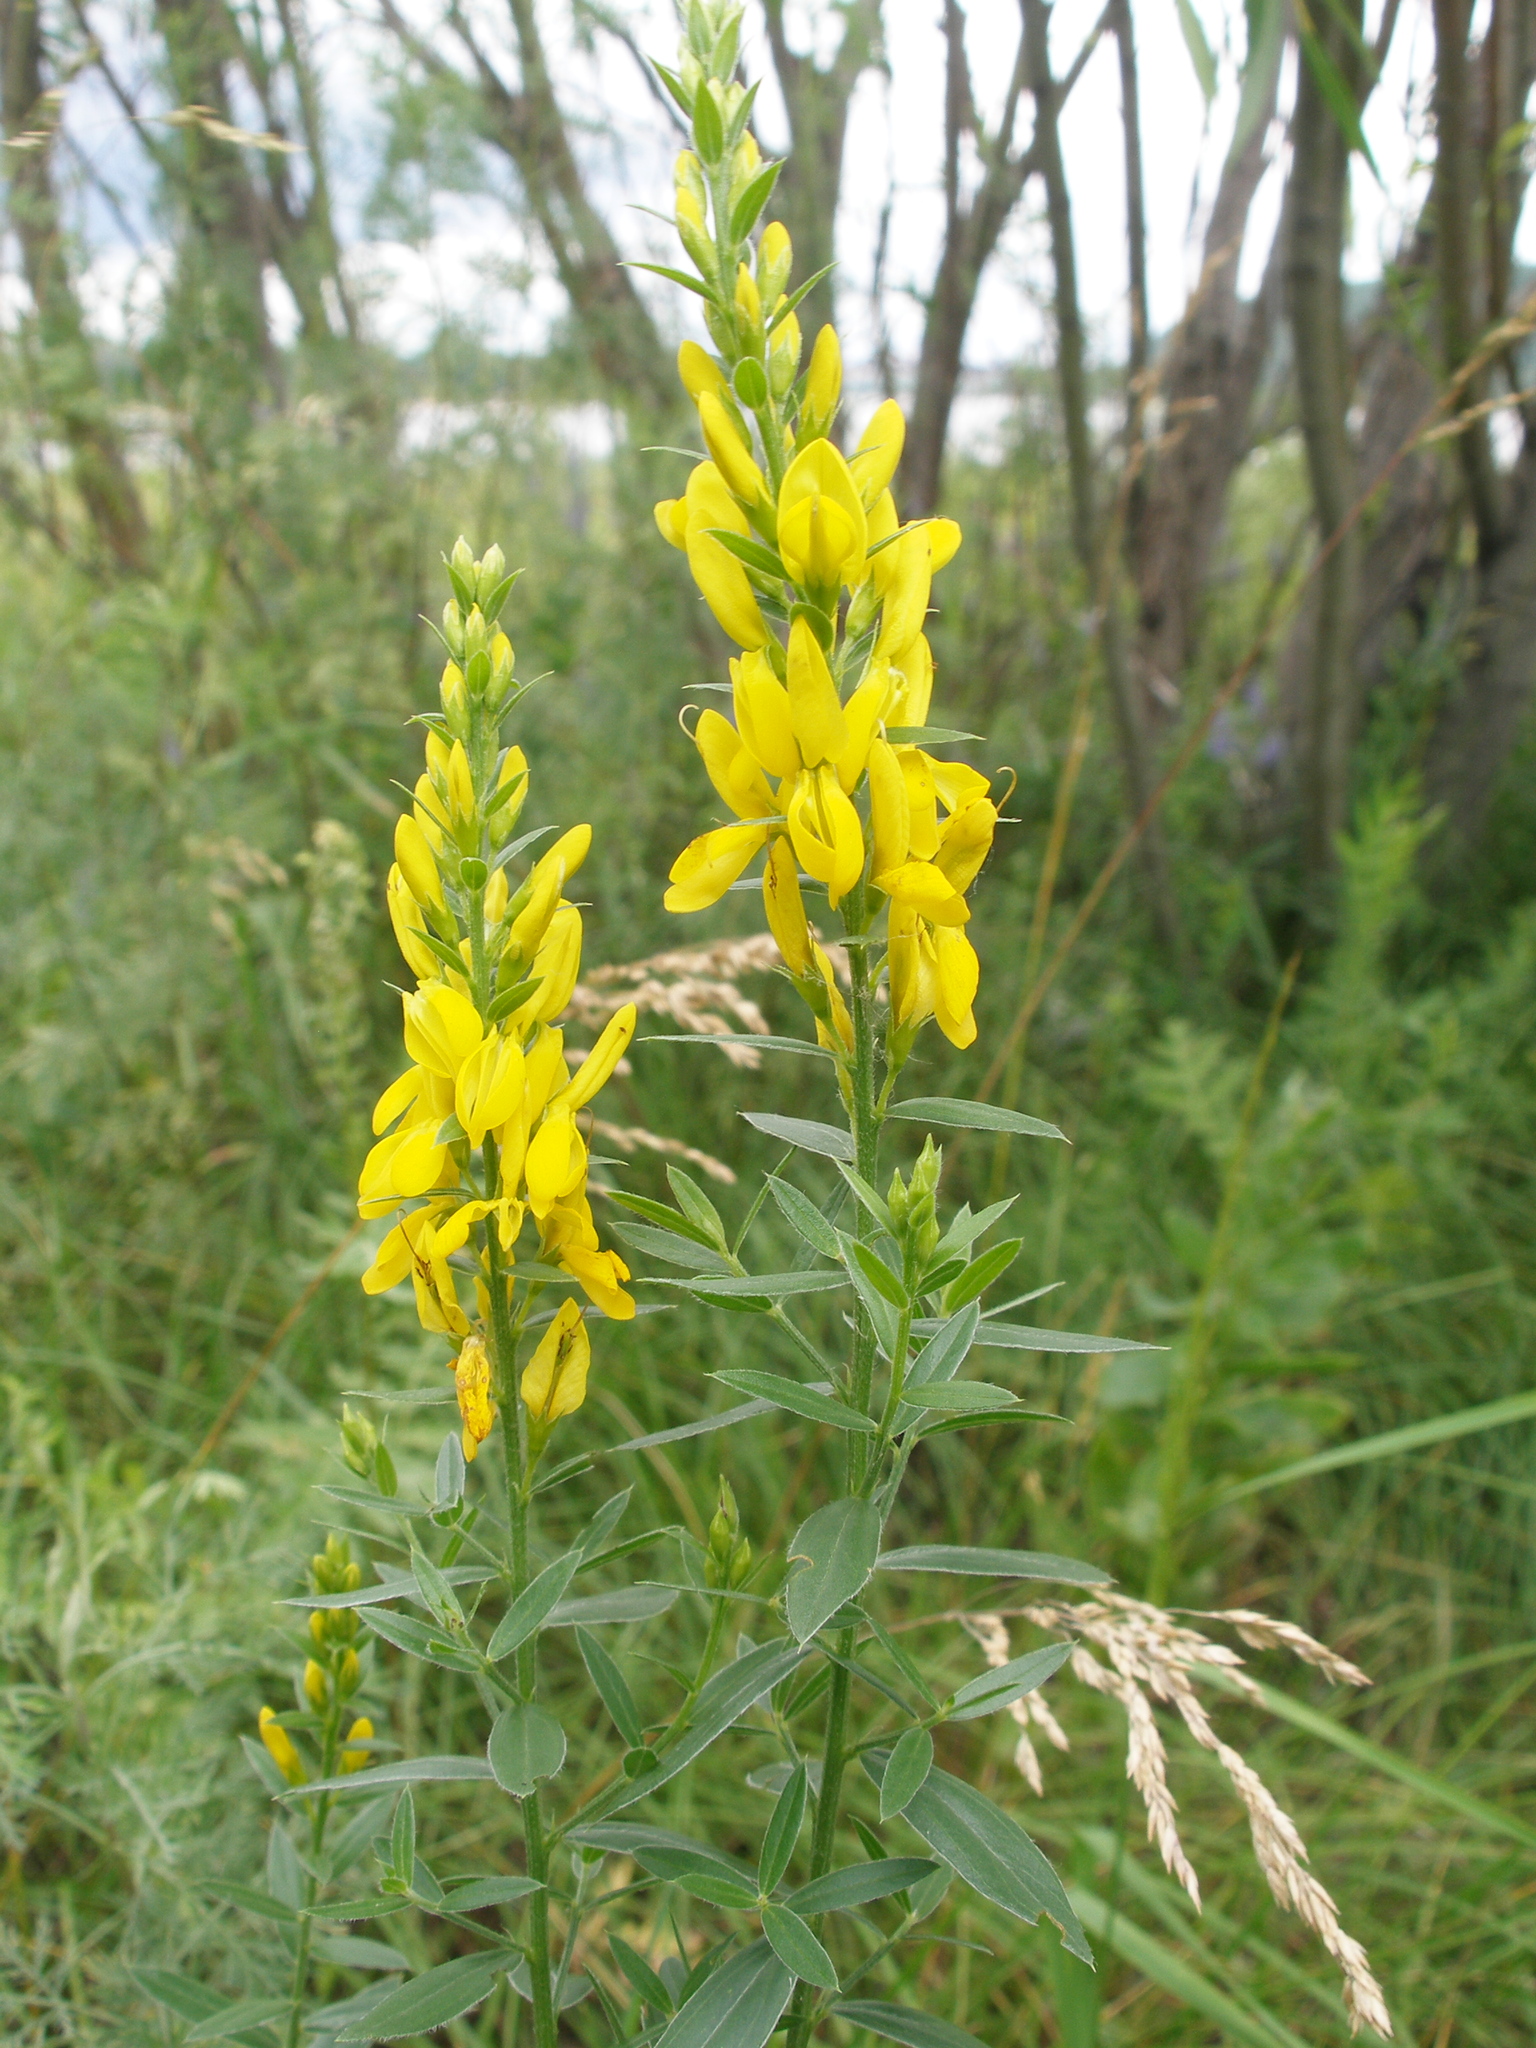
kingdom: Plantae
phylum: Tracheophyta
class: Magnoliopsida
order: Fabales
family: Fabaceae
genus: Genista
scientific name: Genista tinctoria
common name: Dyer's greenweed
